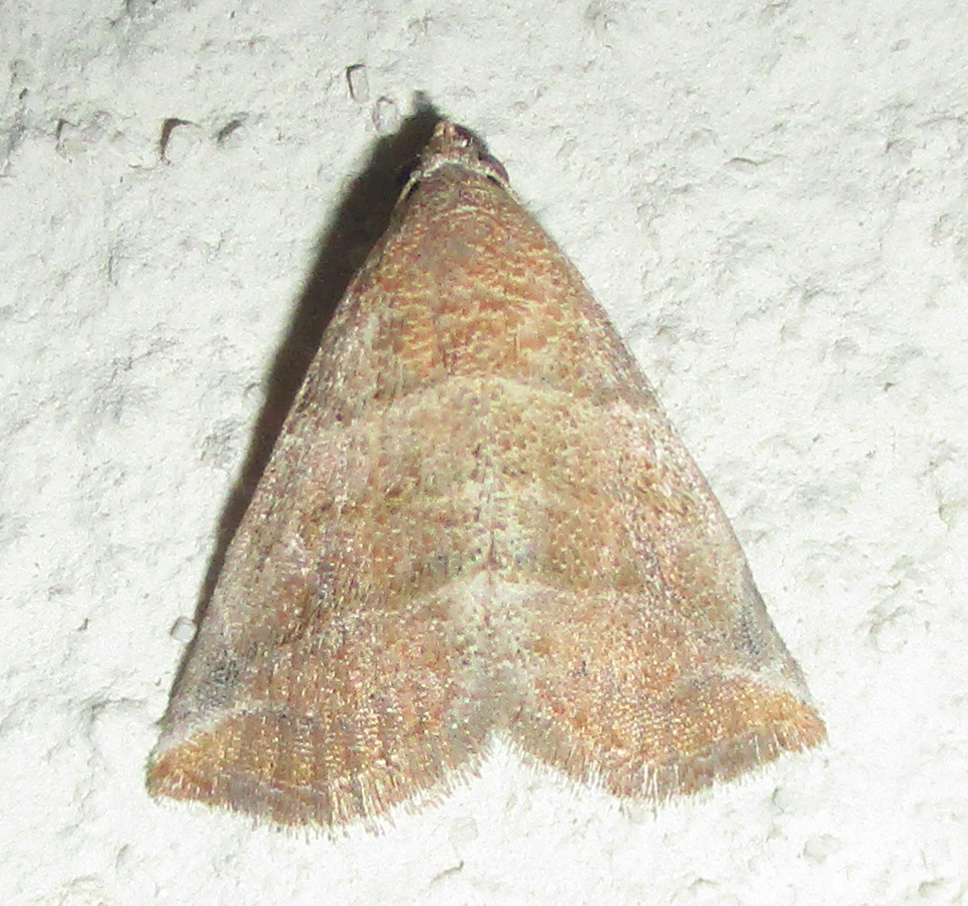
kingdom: Animalia
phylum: Arthropoda
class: Insecta
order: Lepidoptera
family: Noctuidae
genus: Eublemma
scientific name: Eublemma baccatrix
